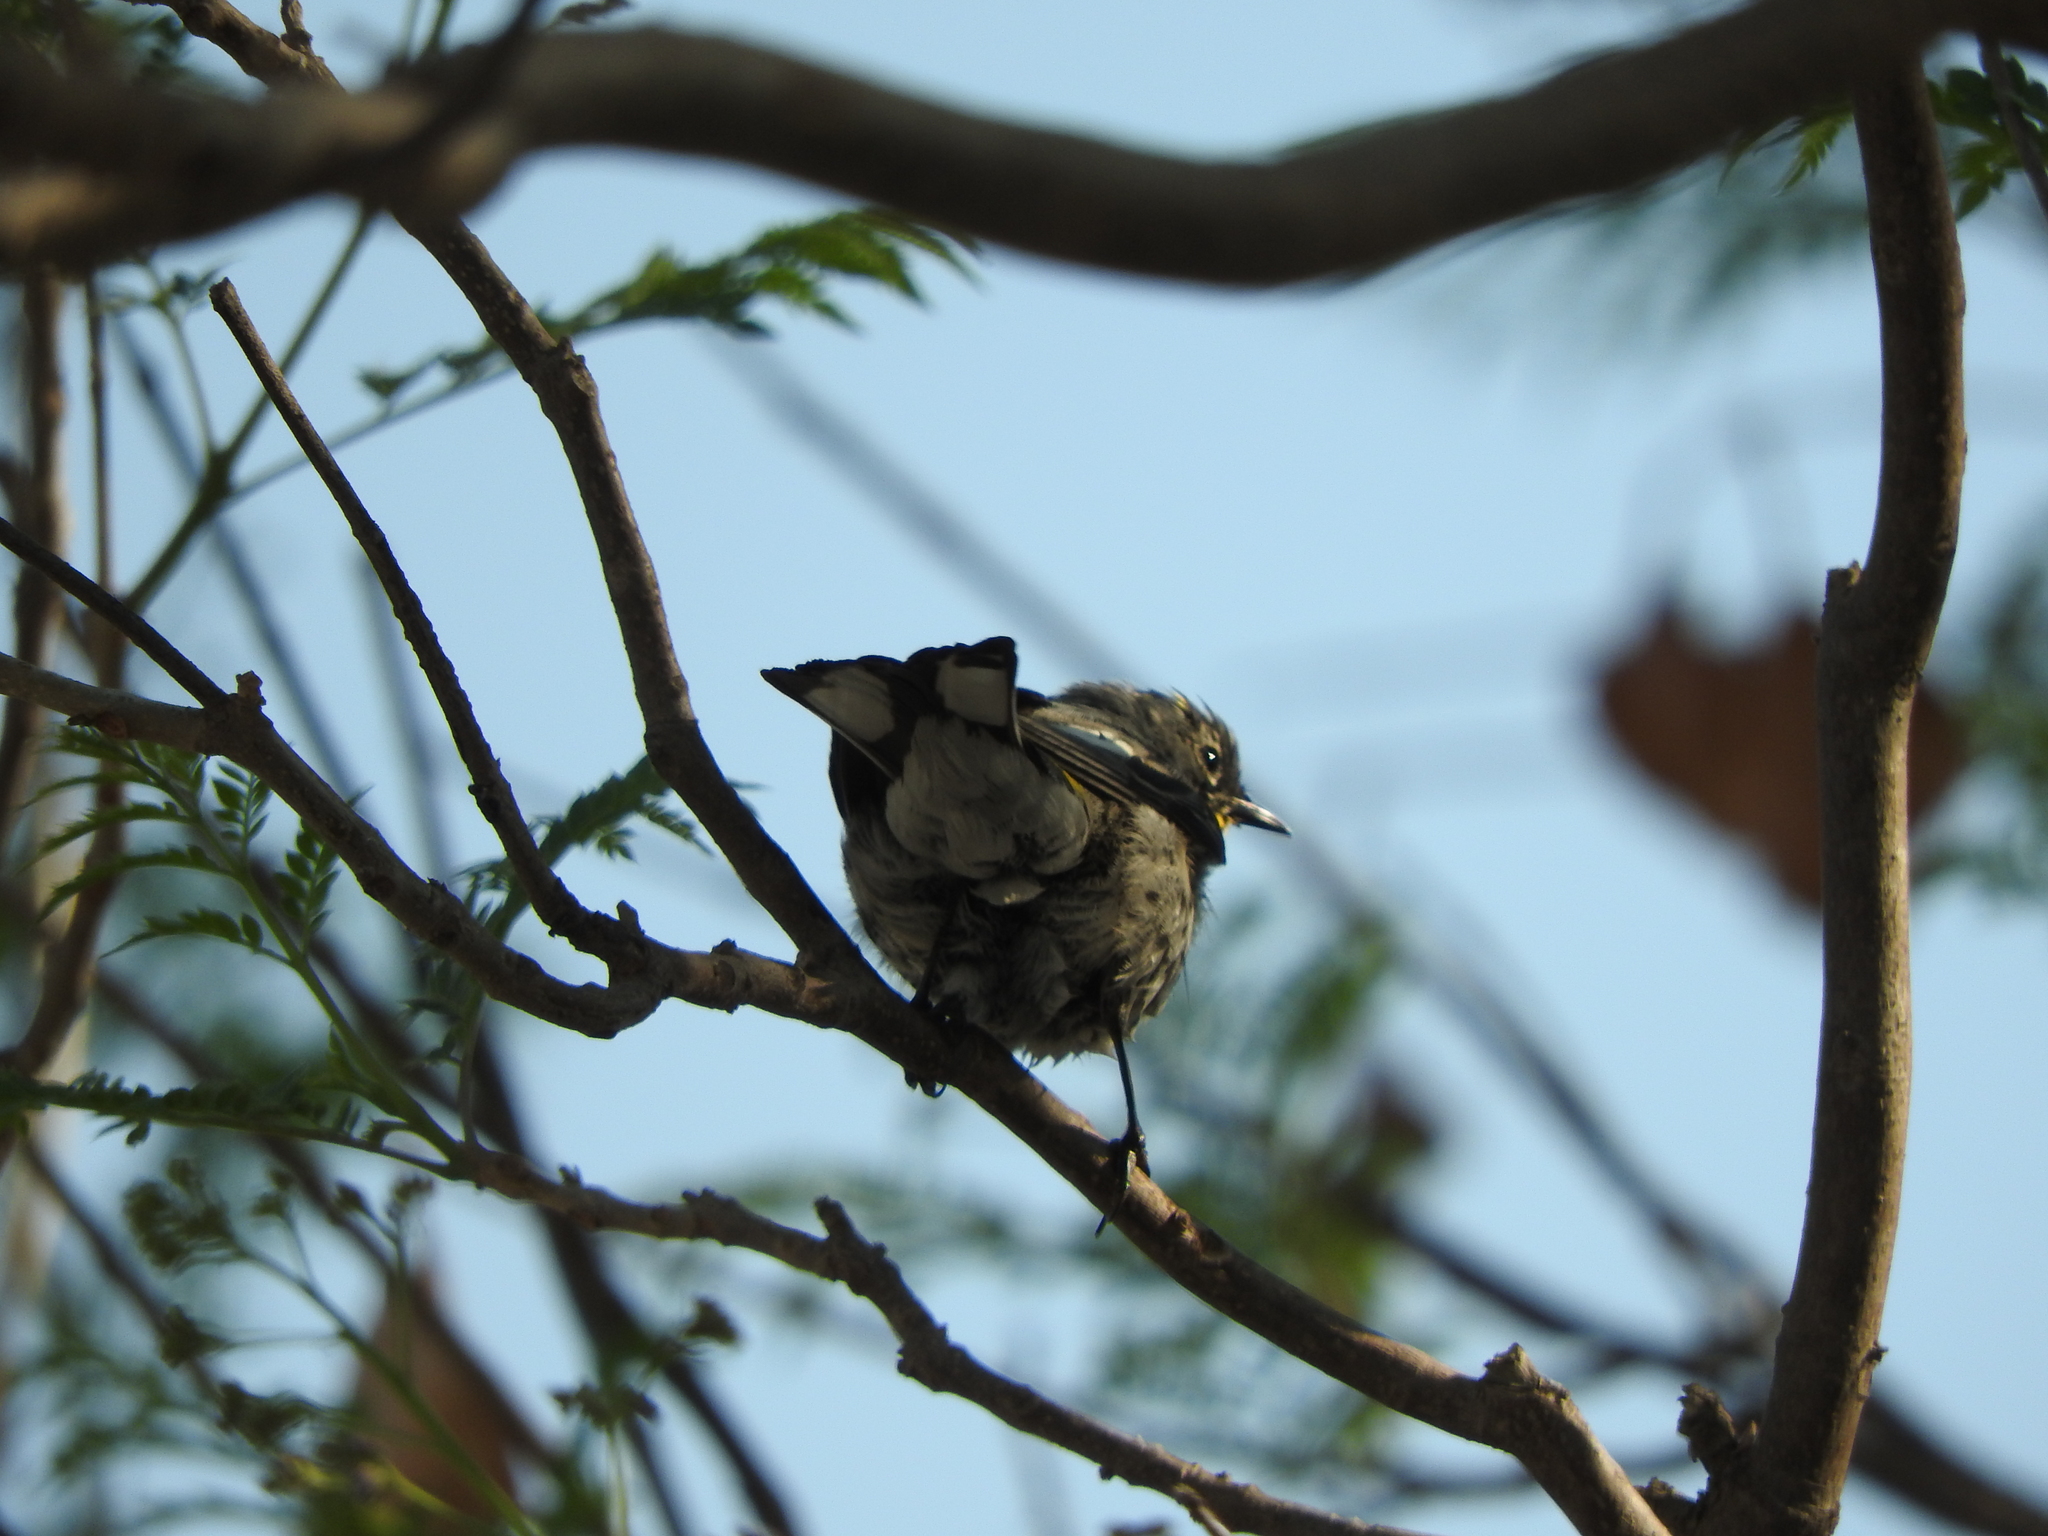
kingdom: Animalia
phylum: Chordata
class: Aves
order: Passeriformes
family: Parulidae
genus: Setophaga
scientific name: Setophaga coronata
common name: Myrtle warbler
